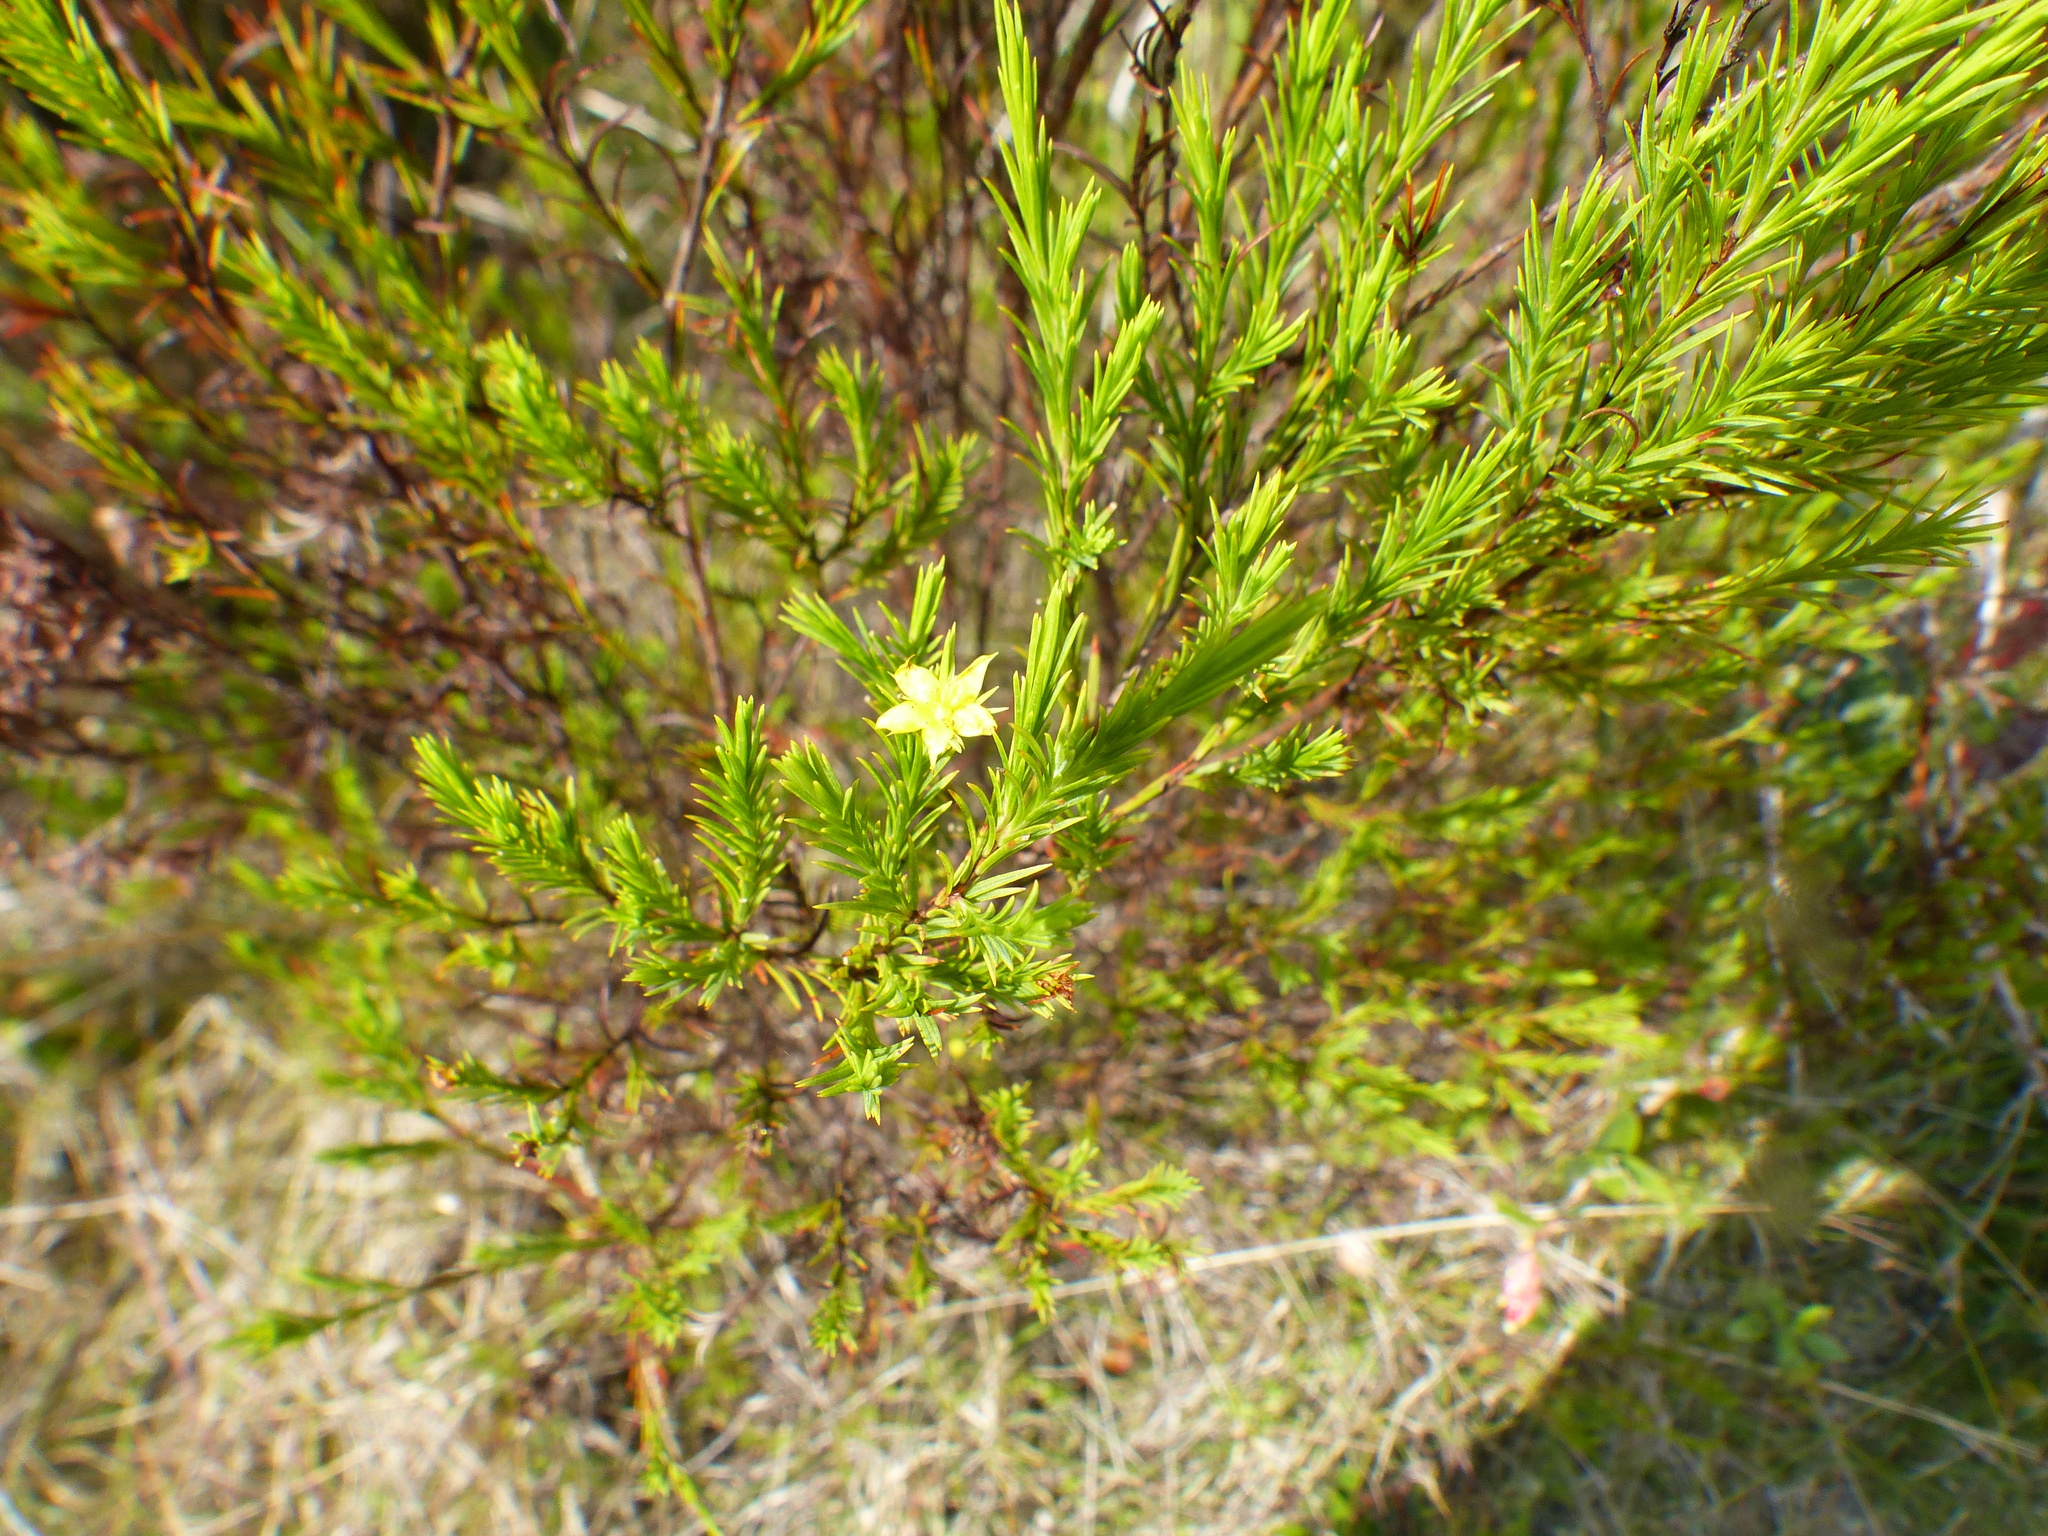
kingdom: Plantae
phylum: Tracheophyta
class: Magnoliopsida
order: Malpighiales
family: Hypericaceae
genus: Hypericum
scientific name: Hypericum juniperinum
